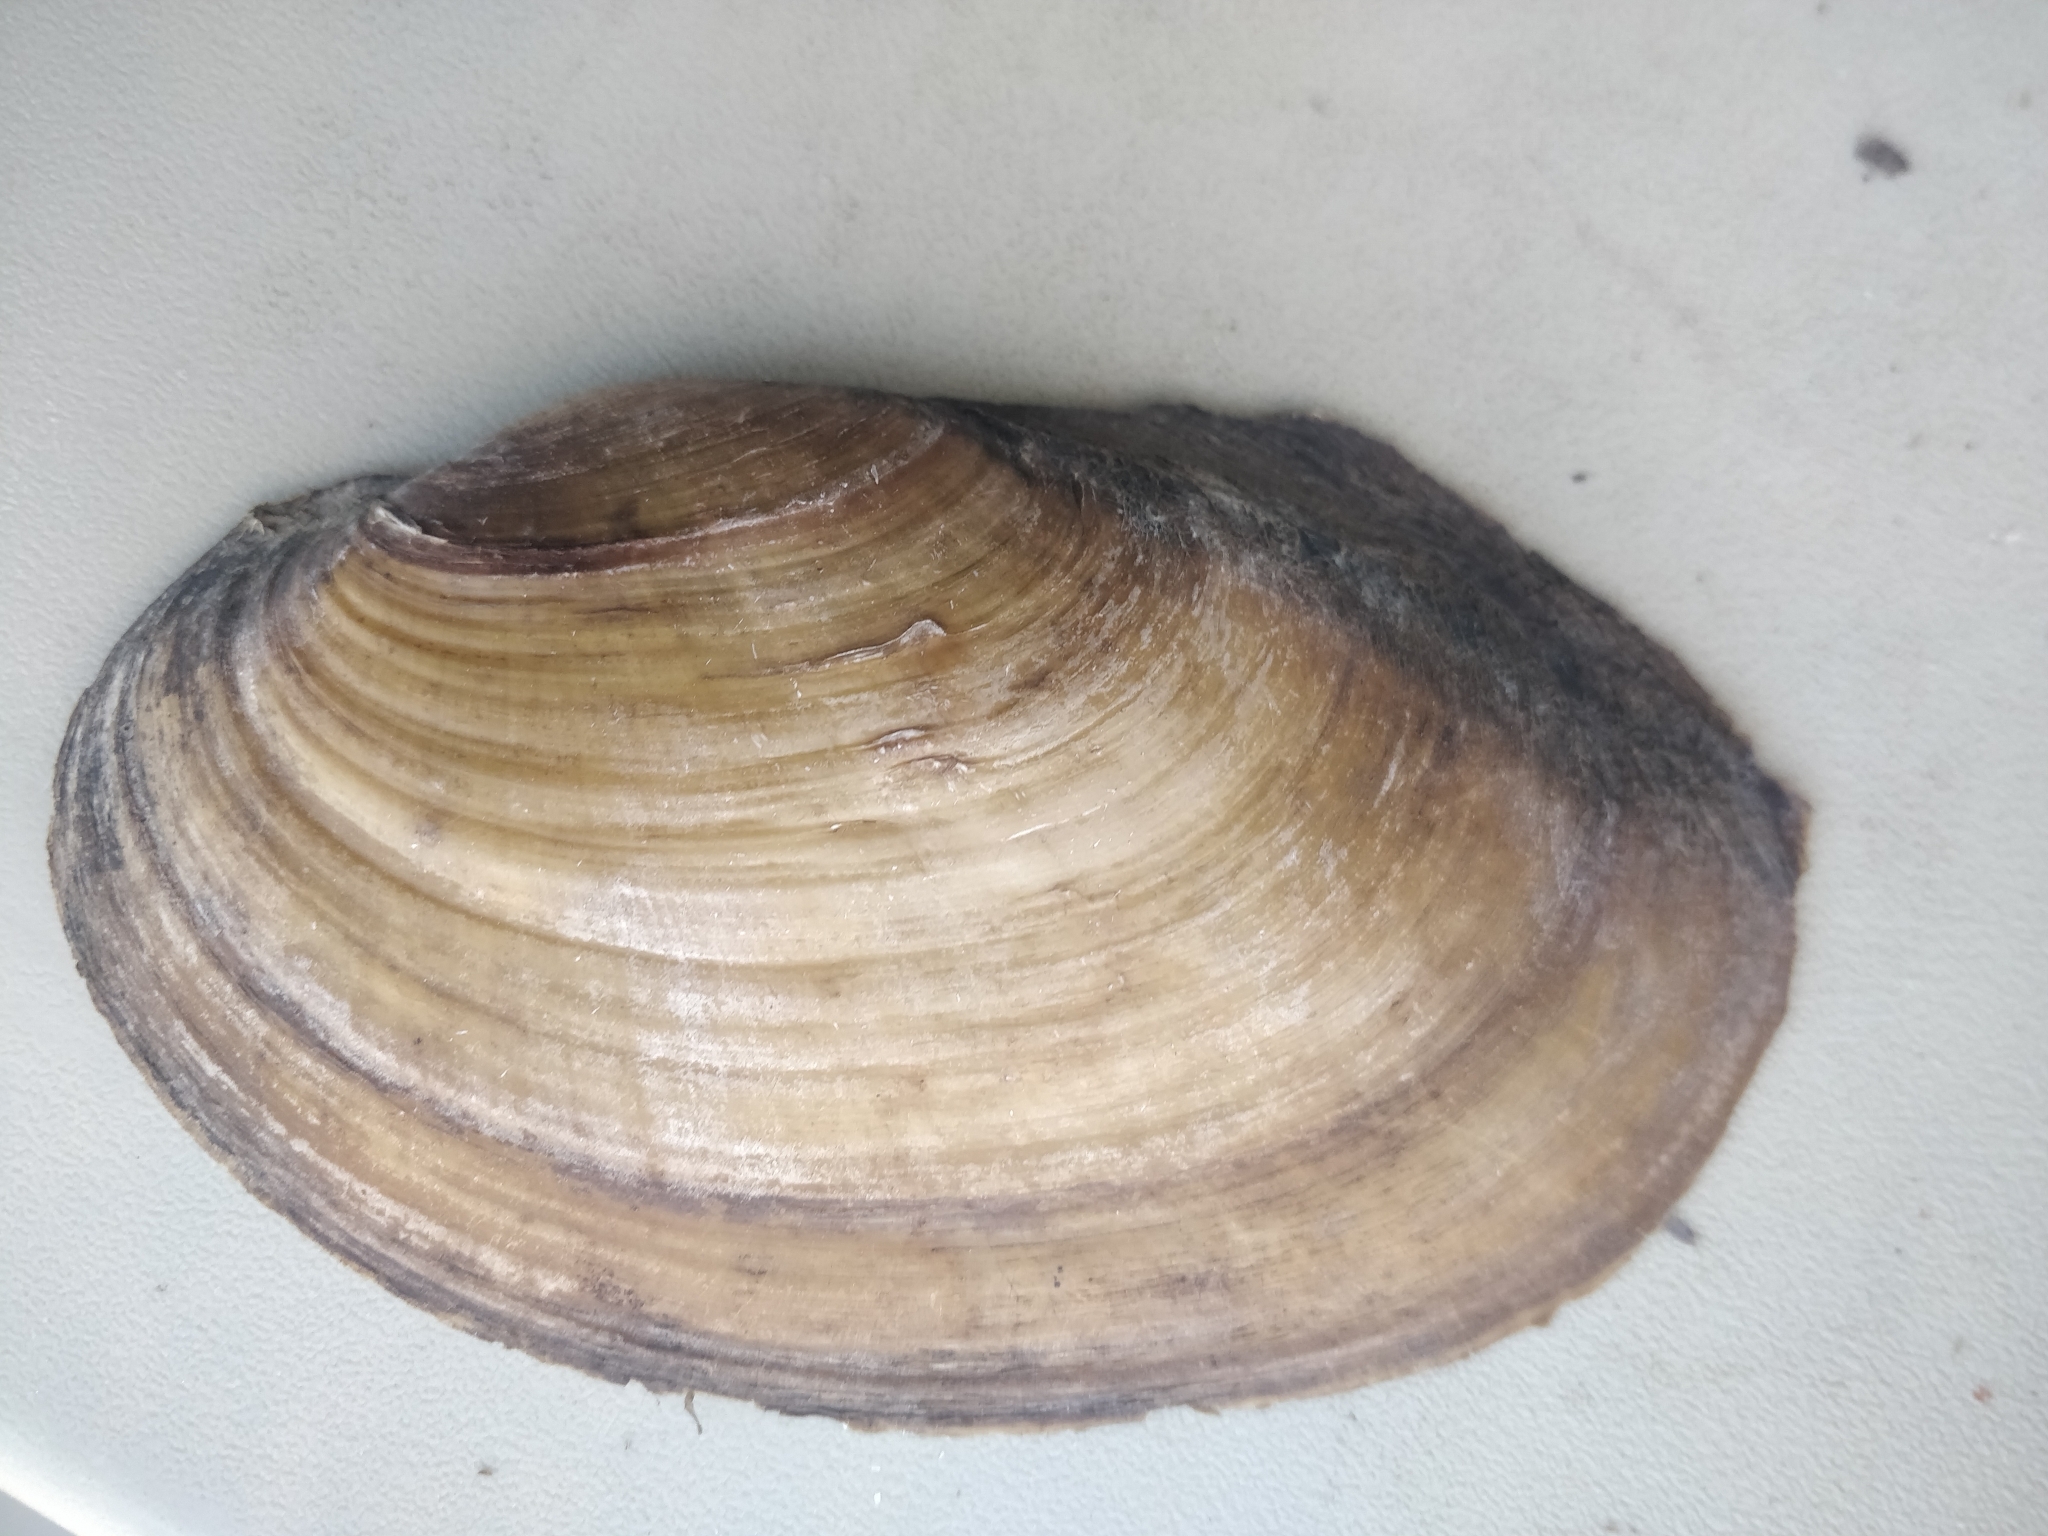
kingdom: Animalia
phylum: Mollusca
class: Bivalvia
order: Unionida
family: Unionidae
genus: Potamilus
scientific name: Potamilus fragilis
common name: Fragile papershell
